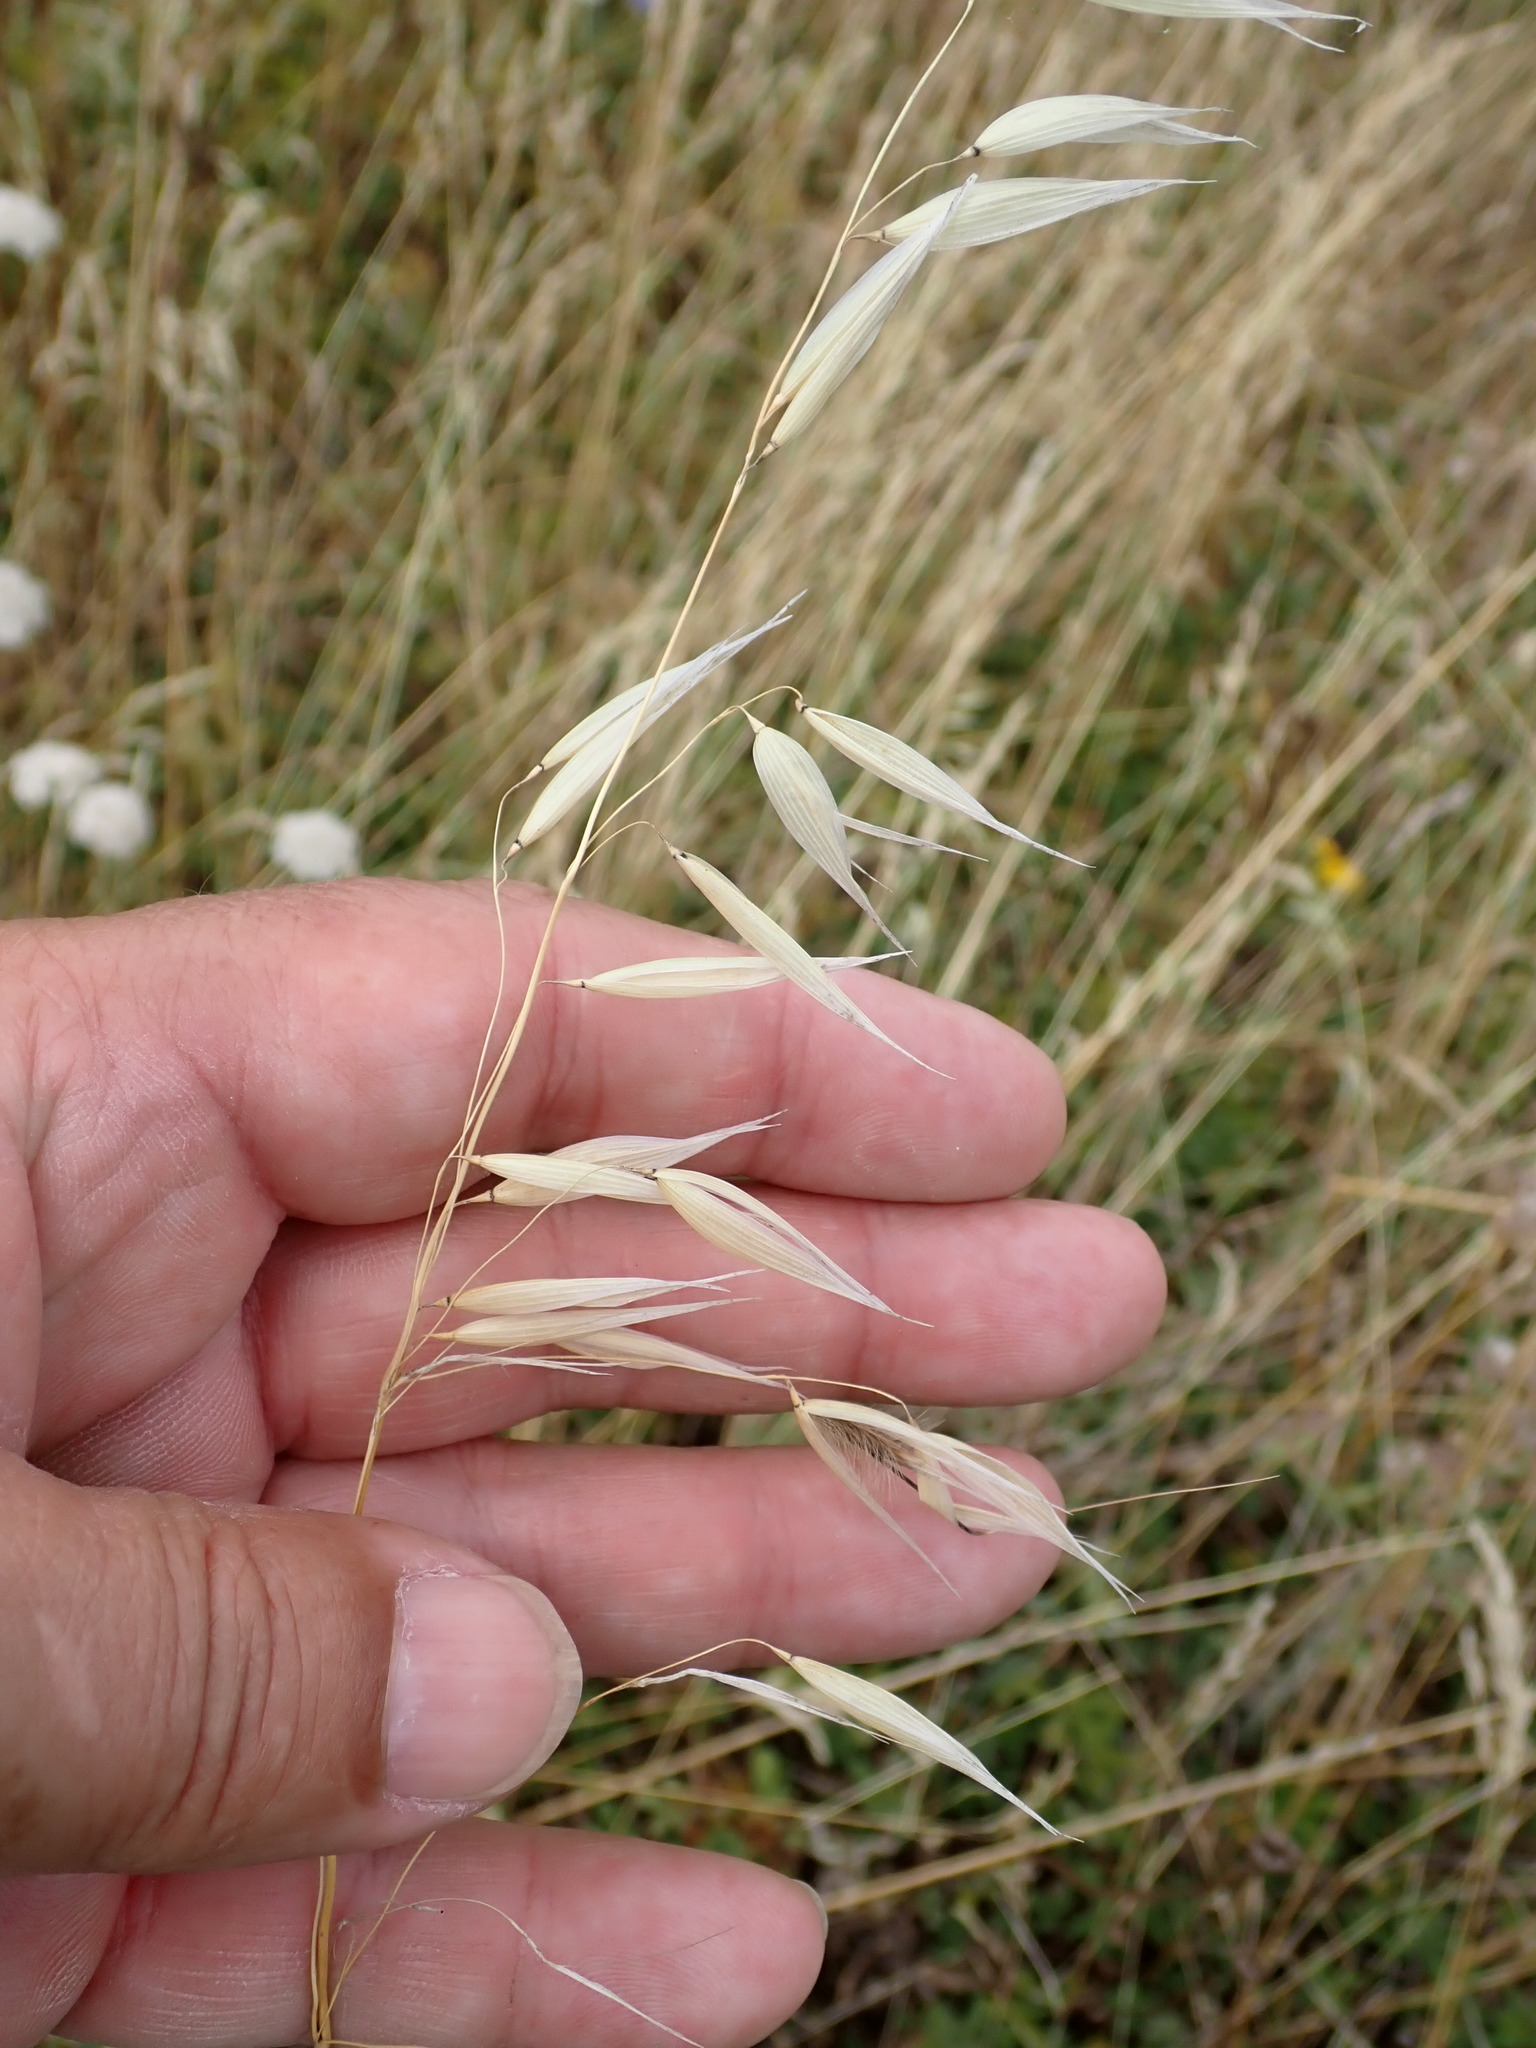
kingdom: Plantae
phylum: Tracheophyta
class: Liliopsida
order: Poales
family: Poaceae
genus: Avena
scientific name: Avena fatua
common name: Wild oat
